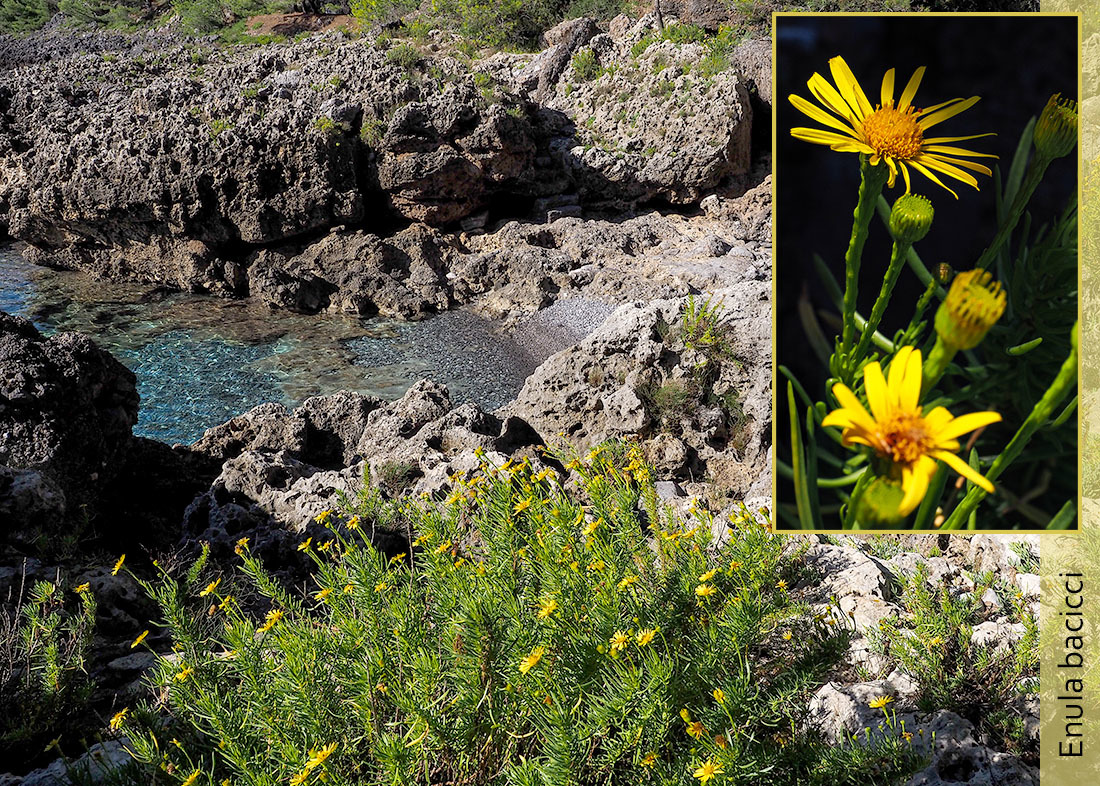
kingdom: Plantae
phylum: Tracheophyta
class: Magnoliopsida
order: Asterales
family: Asteraceae
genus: Limbarda
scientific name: Limbarda crithmoides
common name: Golden samphire
